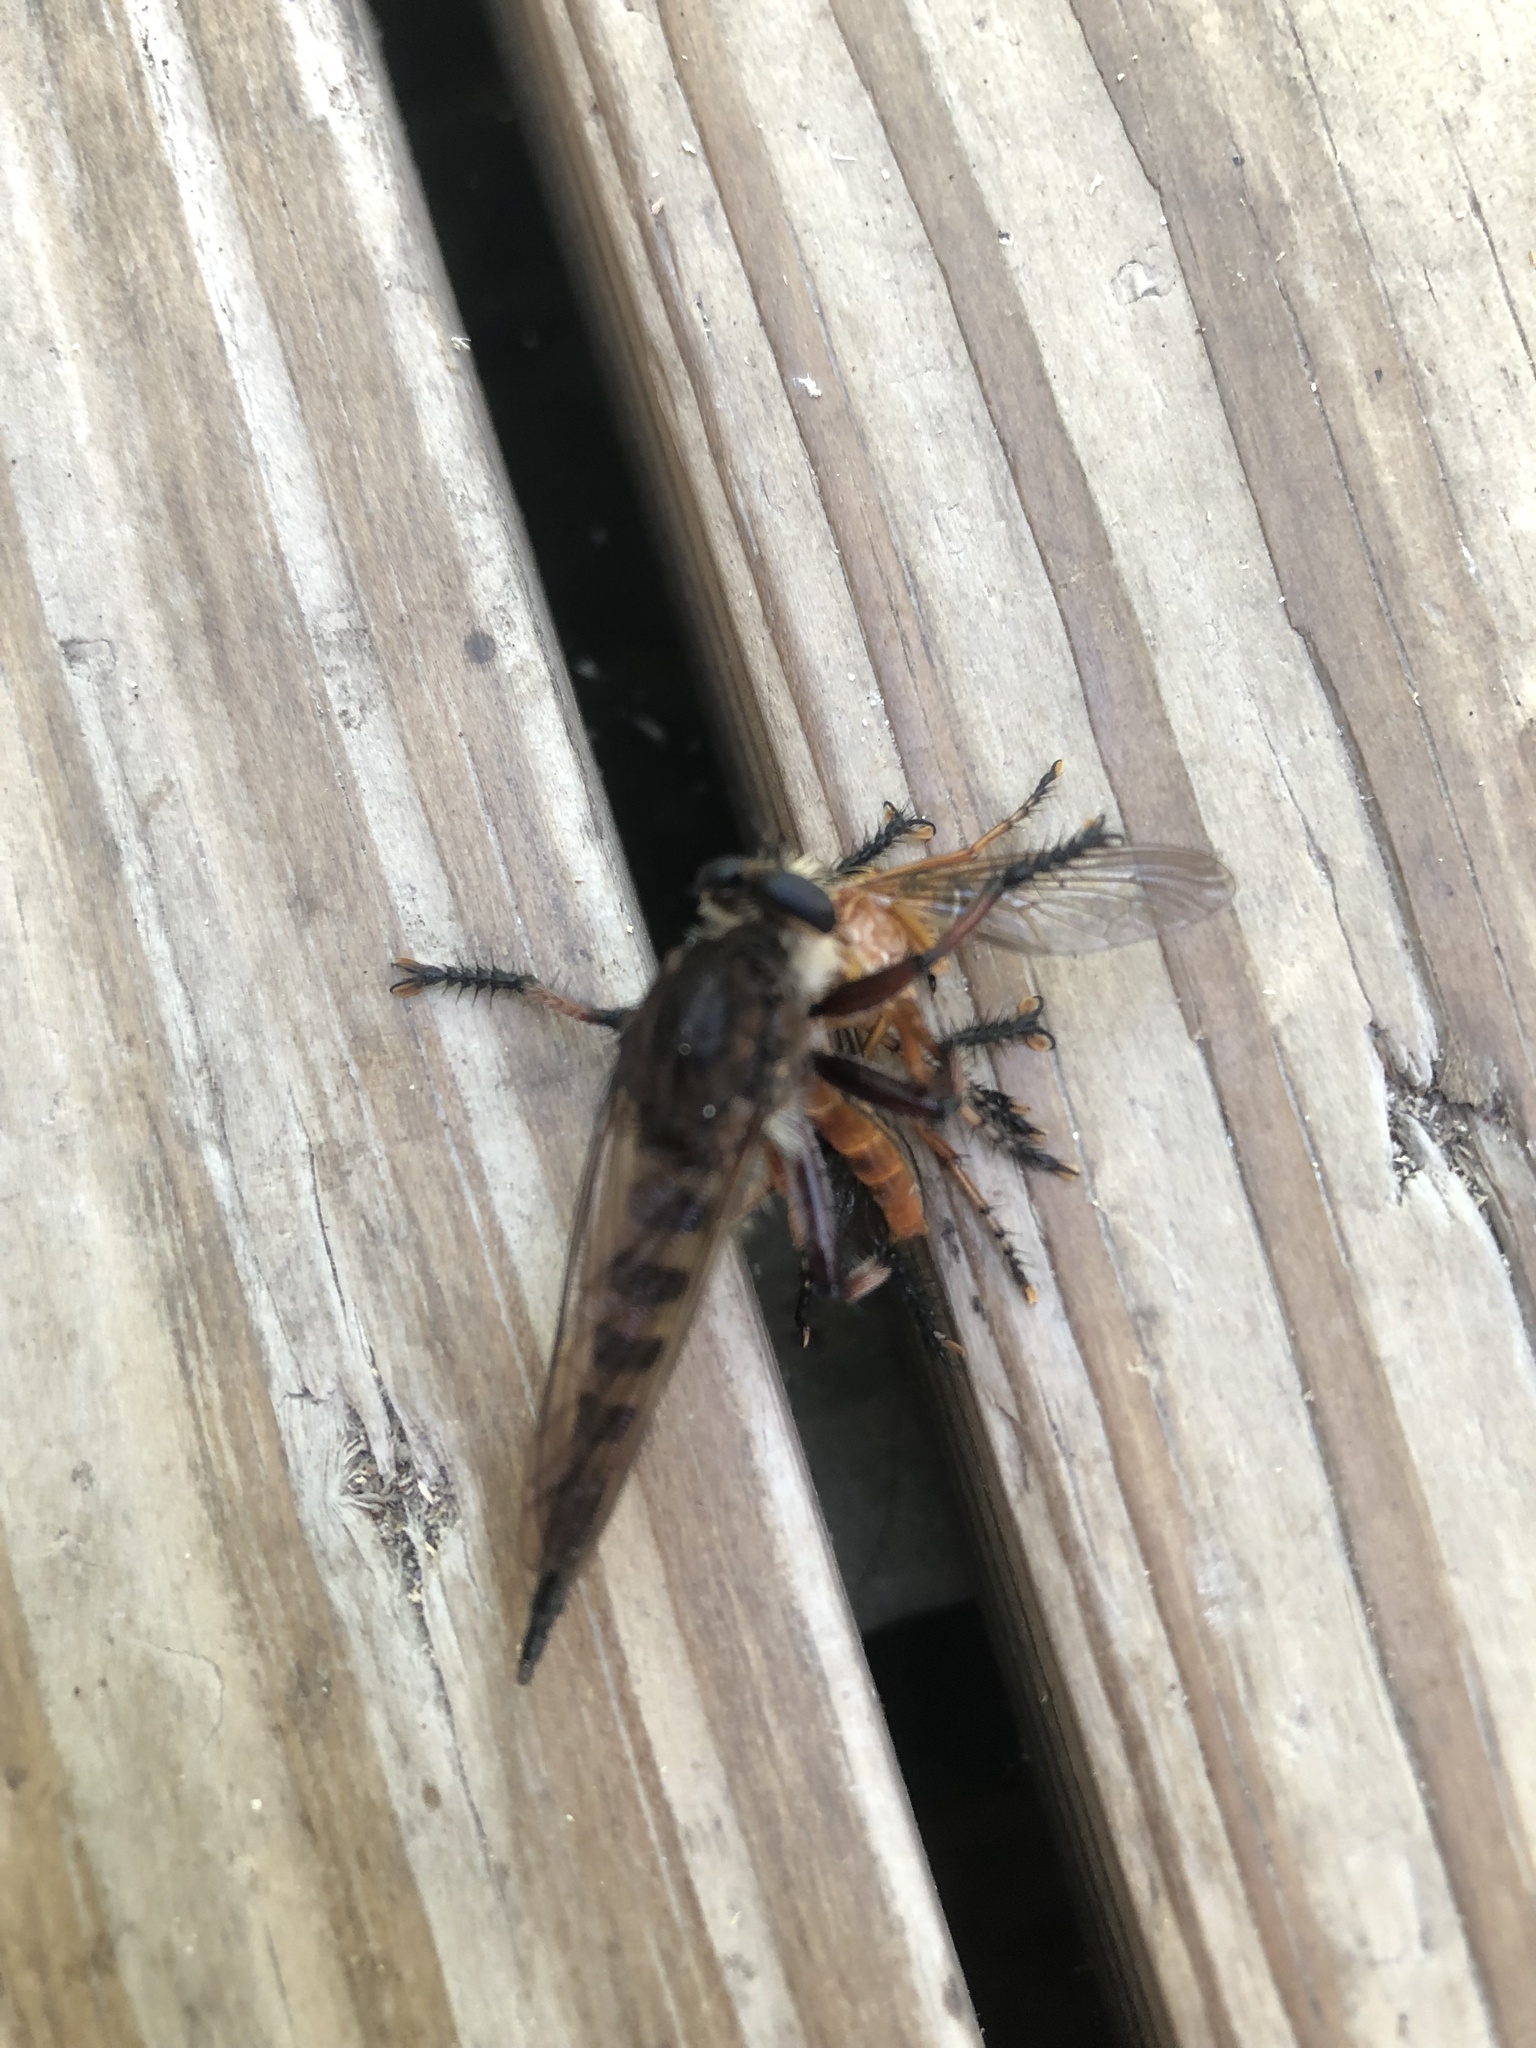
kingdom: Animalia
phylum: Arthropoda
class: Insecta
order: Diptera
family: Asilidae
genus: Promachus
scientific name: Promachus hinei
